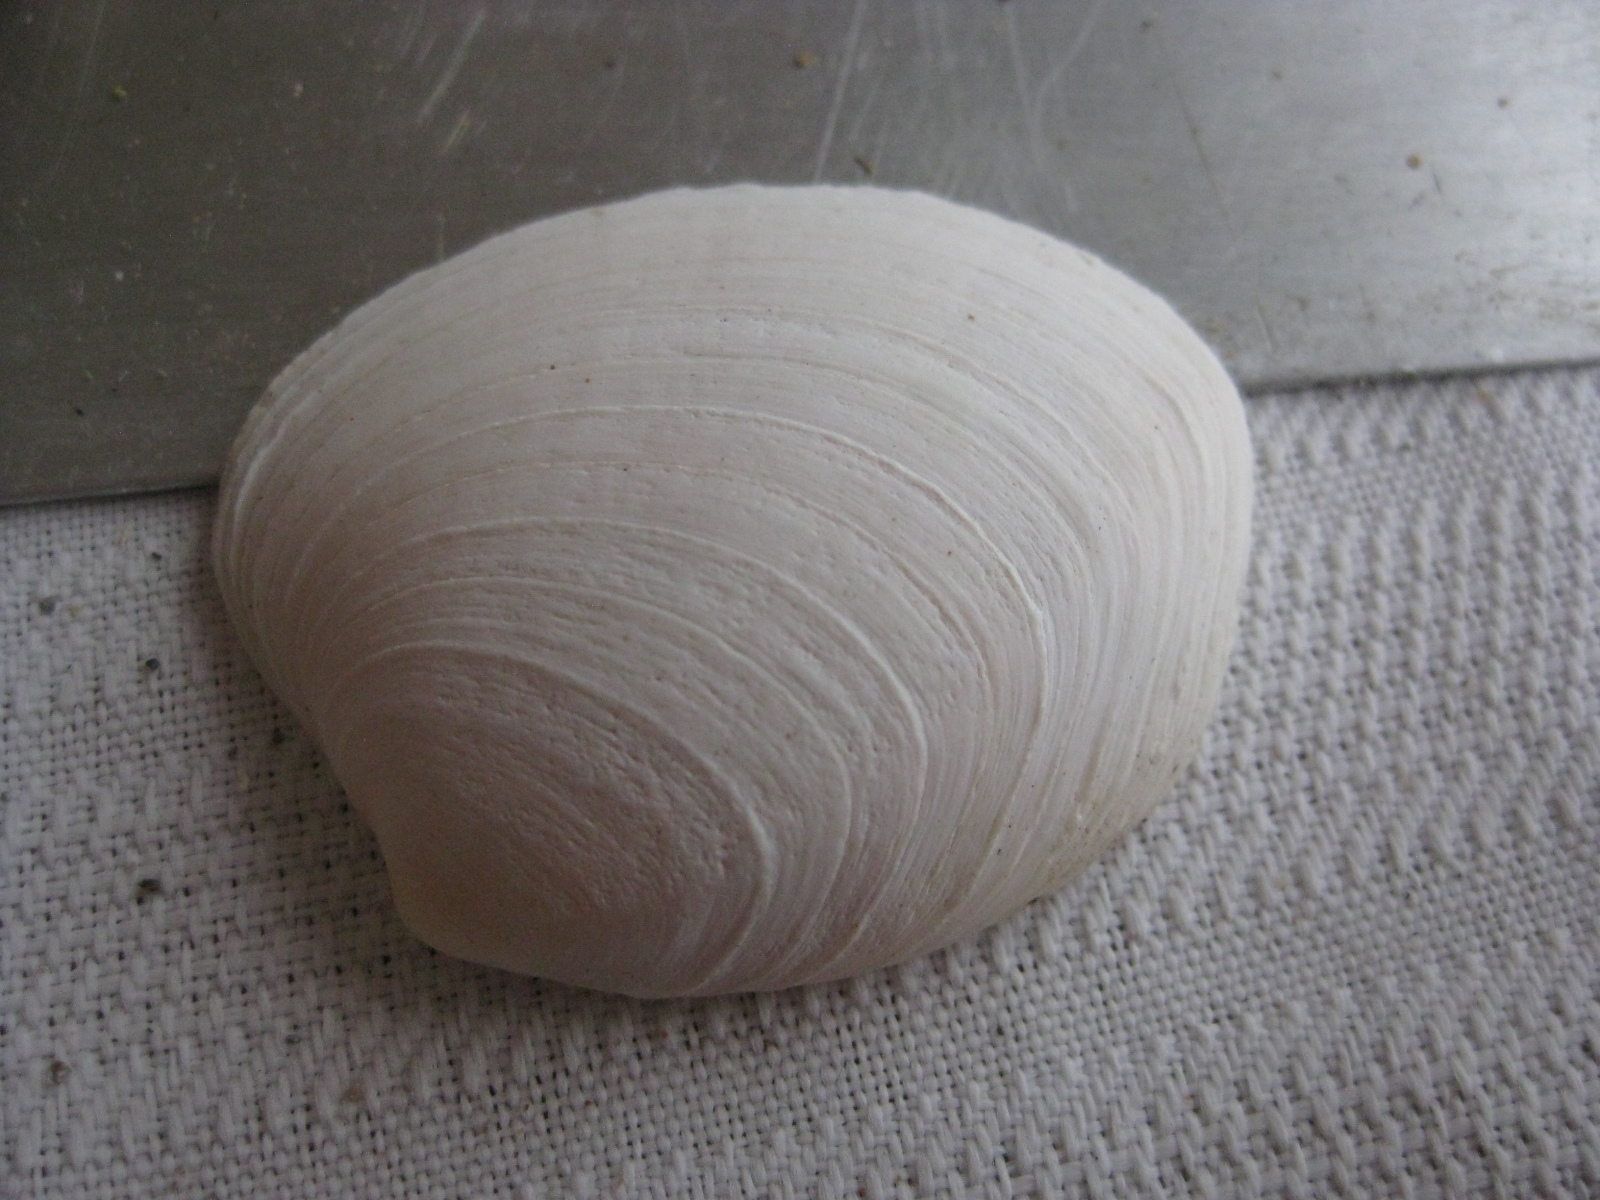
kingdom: Animalia
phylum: Mollusca
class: Bivalvia
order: Venerida
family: Veneridae
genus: Bassina
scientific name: Bassina yatei
